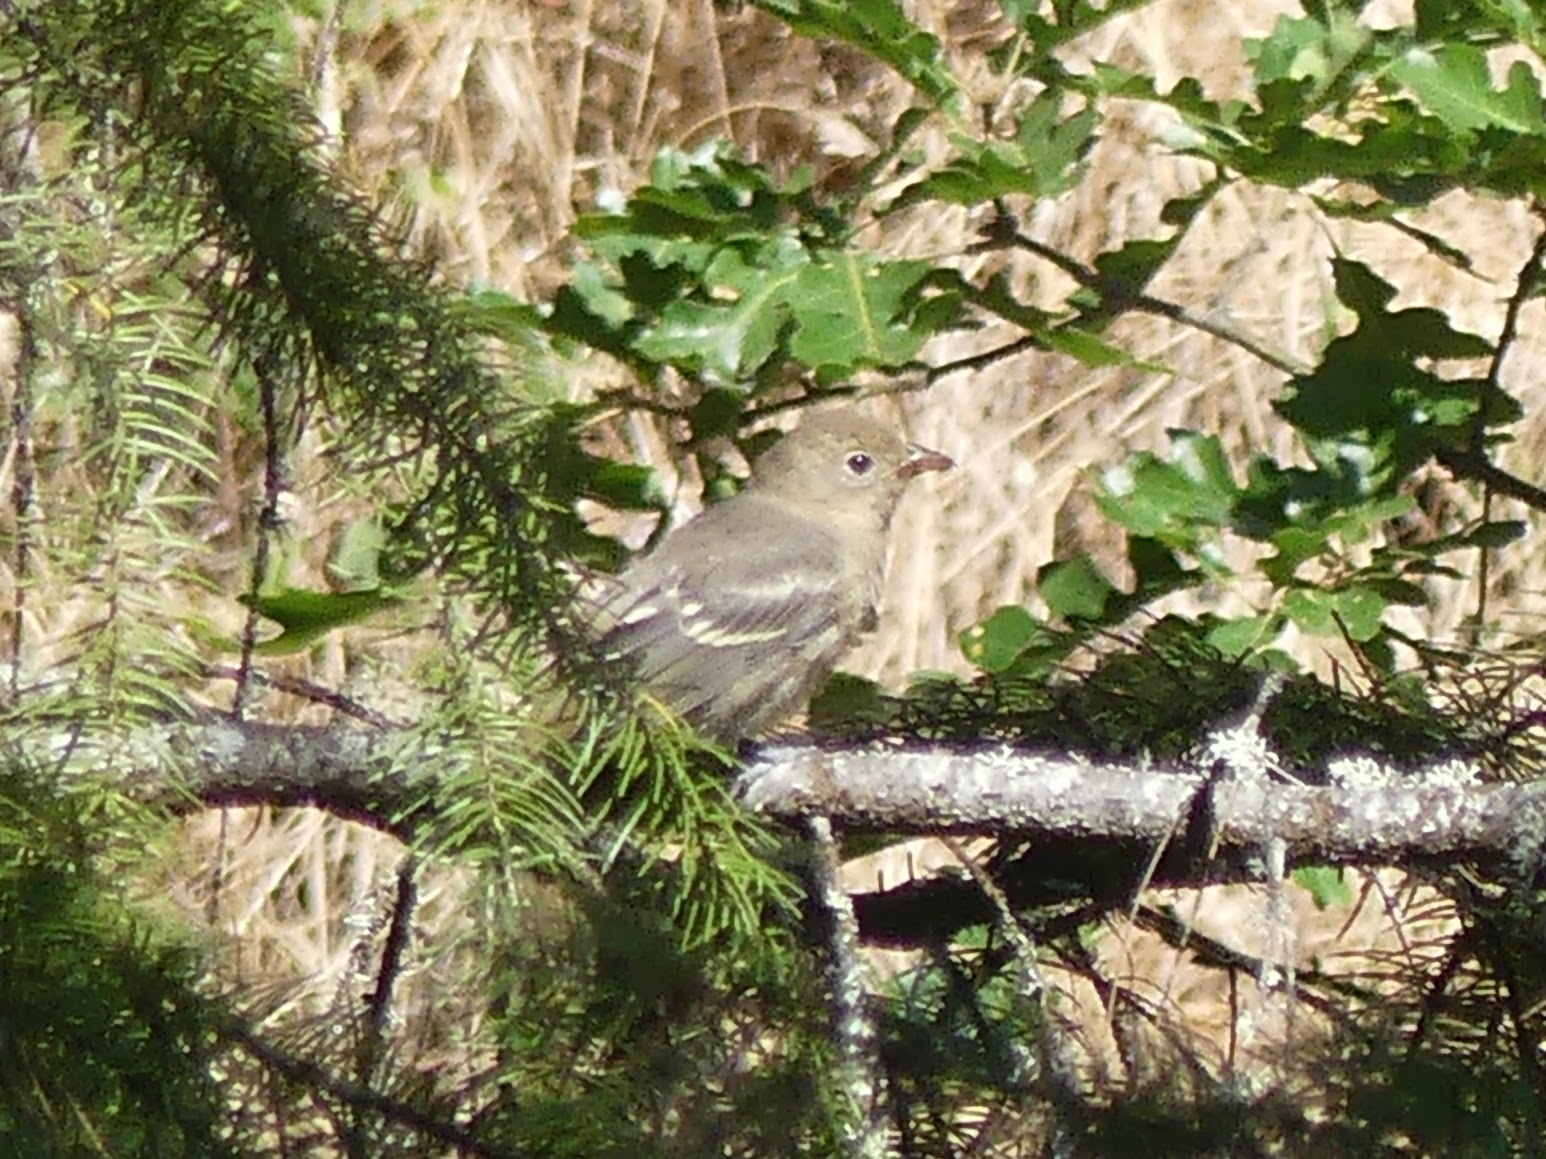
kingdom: Animalia
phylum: Chordata
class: Aves
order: Passeriformes
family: Cardinalidae
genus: Piranga
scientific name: Piranga ludoviciana
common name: Western tanager
